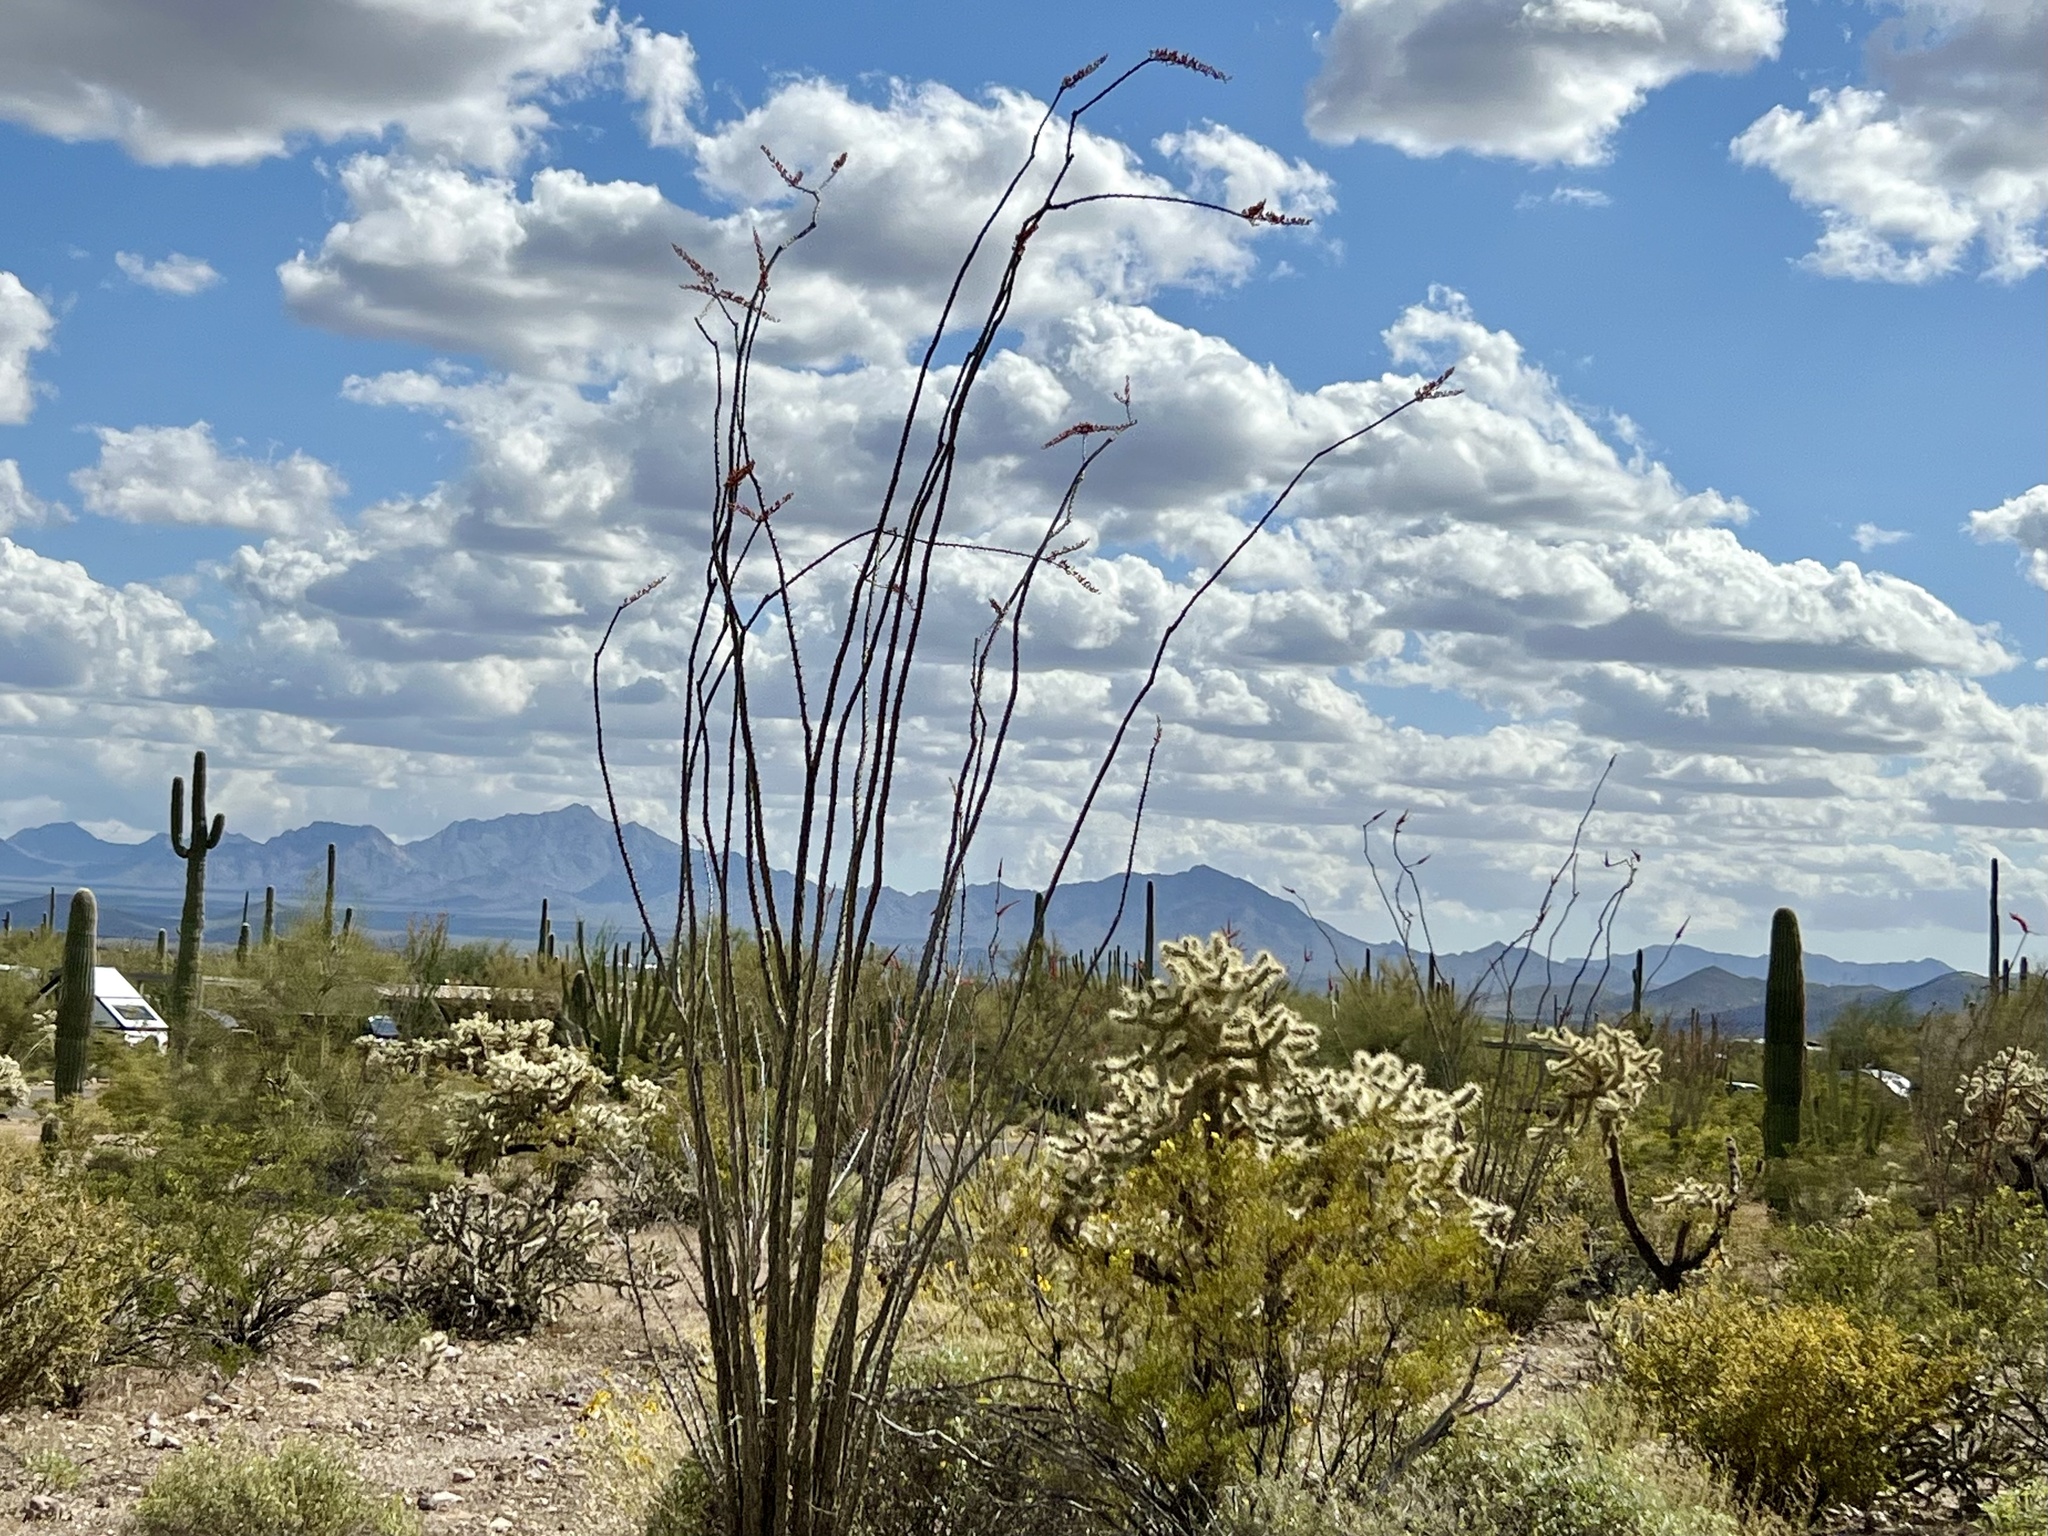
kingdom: Plantae
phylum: Tracheophyta
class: Magnoliopsida
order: Ericales
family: Fouquieriaceae
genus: Fouquieria
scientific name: Fouquieria splendens
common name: Vine-cactus
